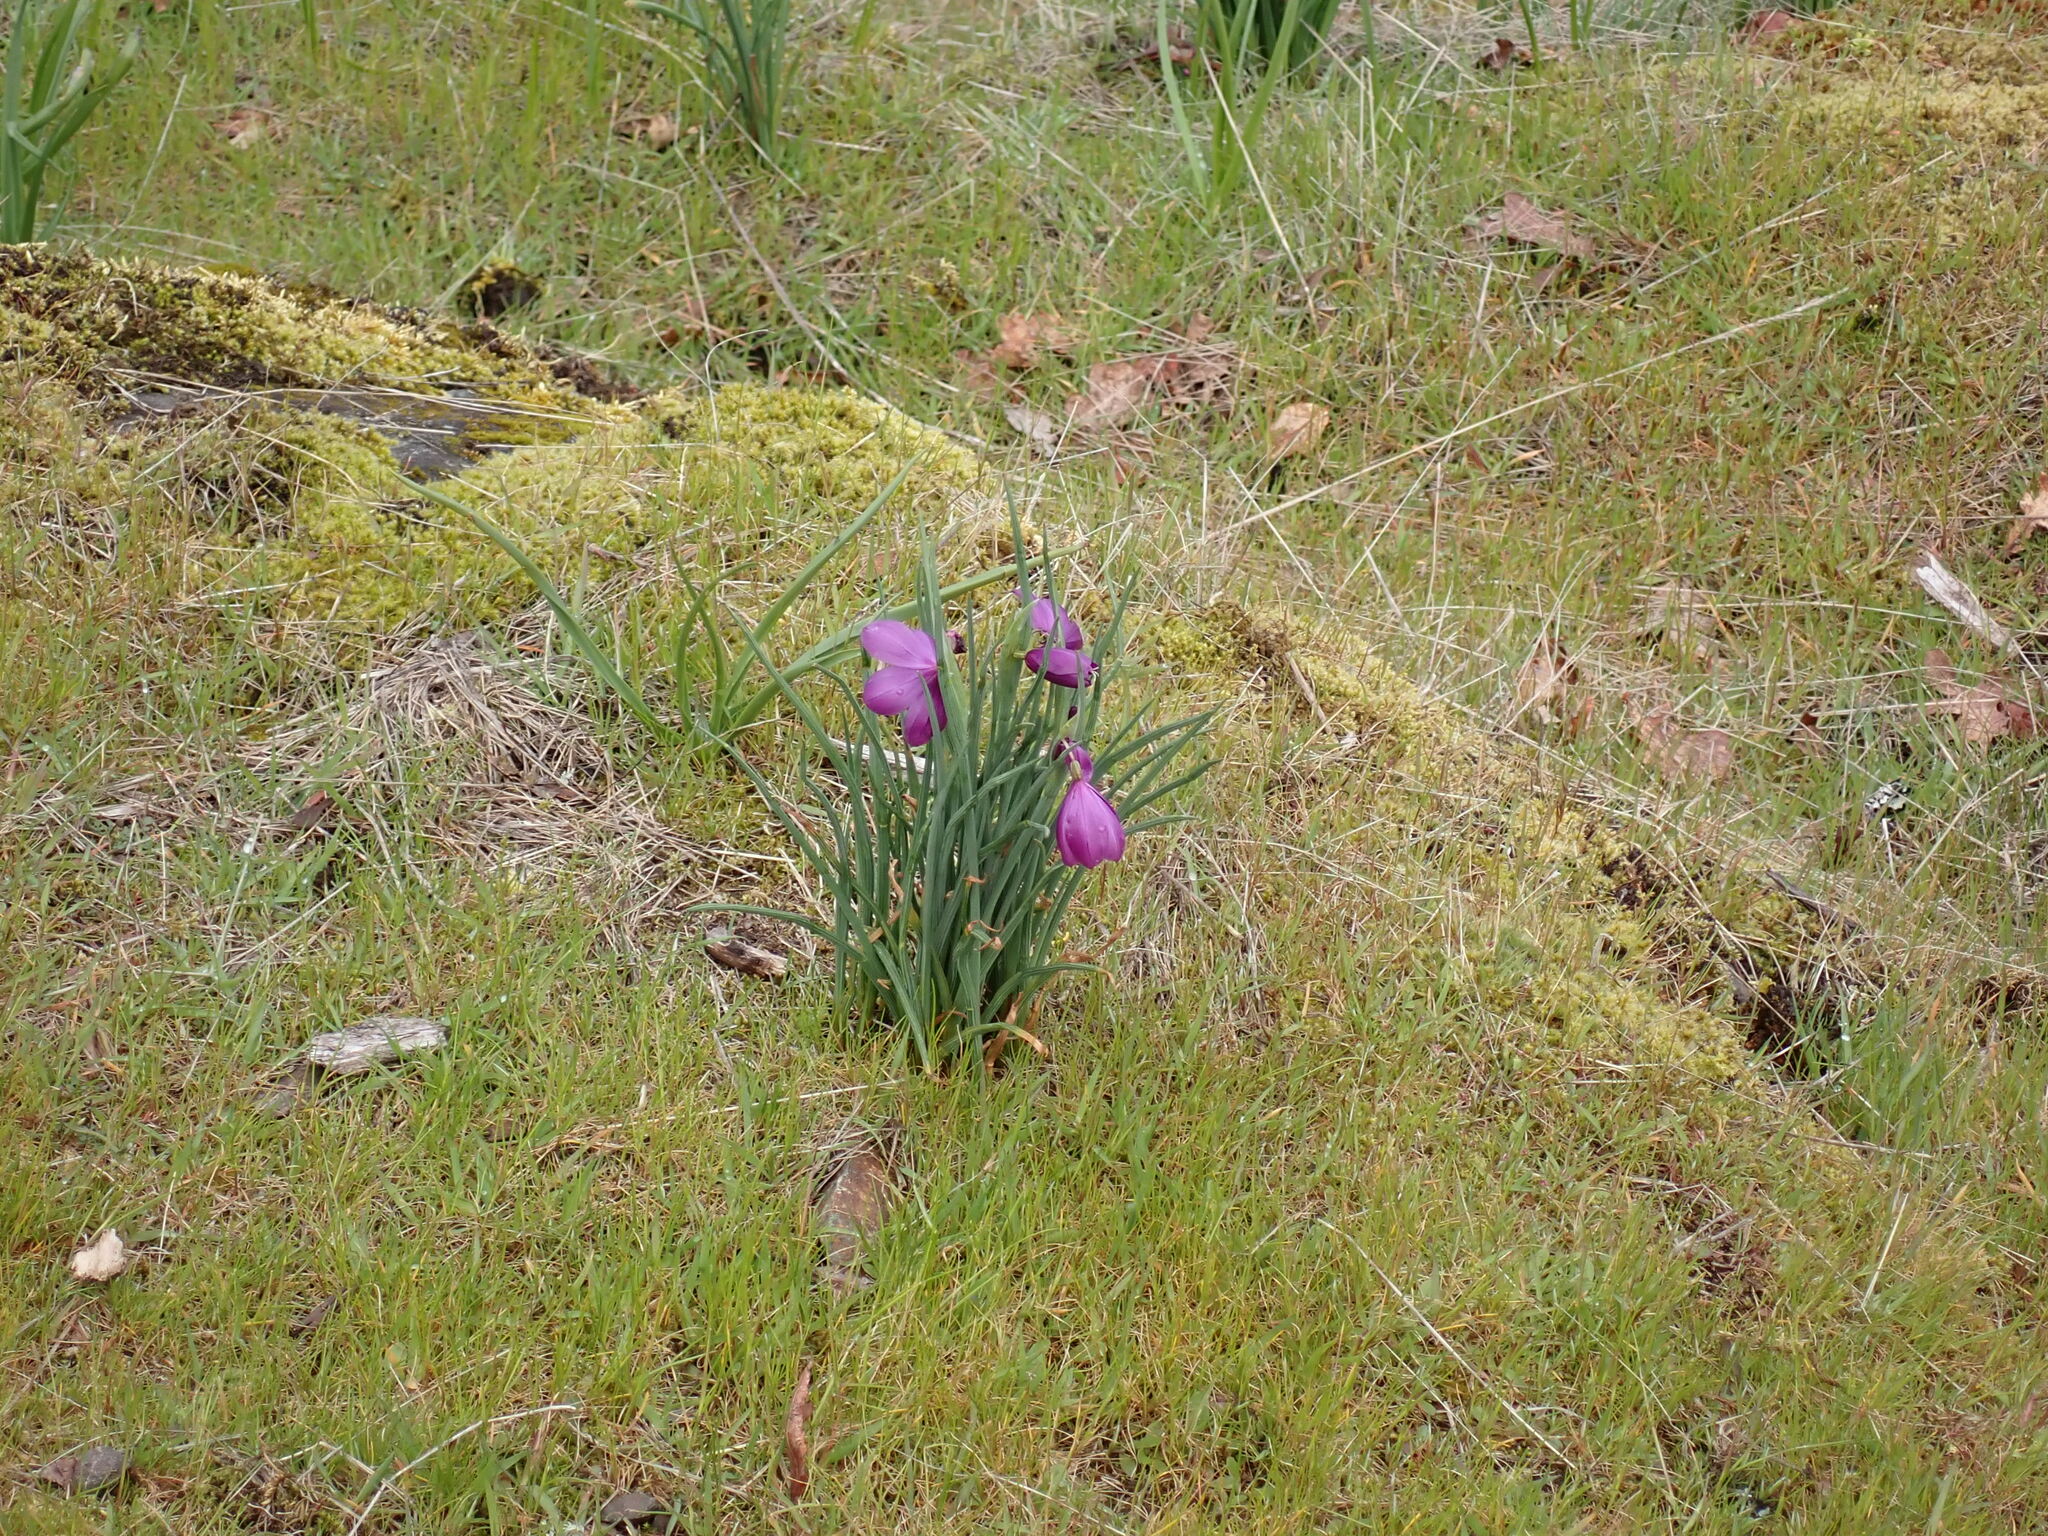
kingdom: Plantae
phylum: Tracheophyta
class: Liliopsida
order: Asparagales
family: Iridaceae
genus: Olsynium
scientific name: Olsynium douglasii
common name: Douglas' grasswidow
